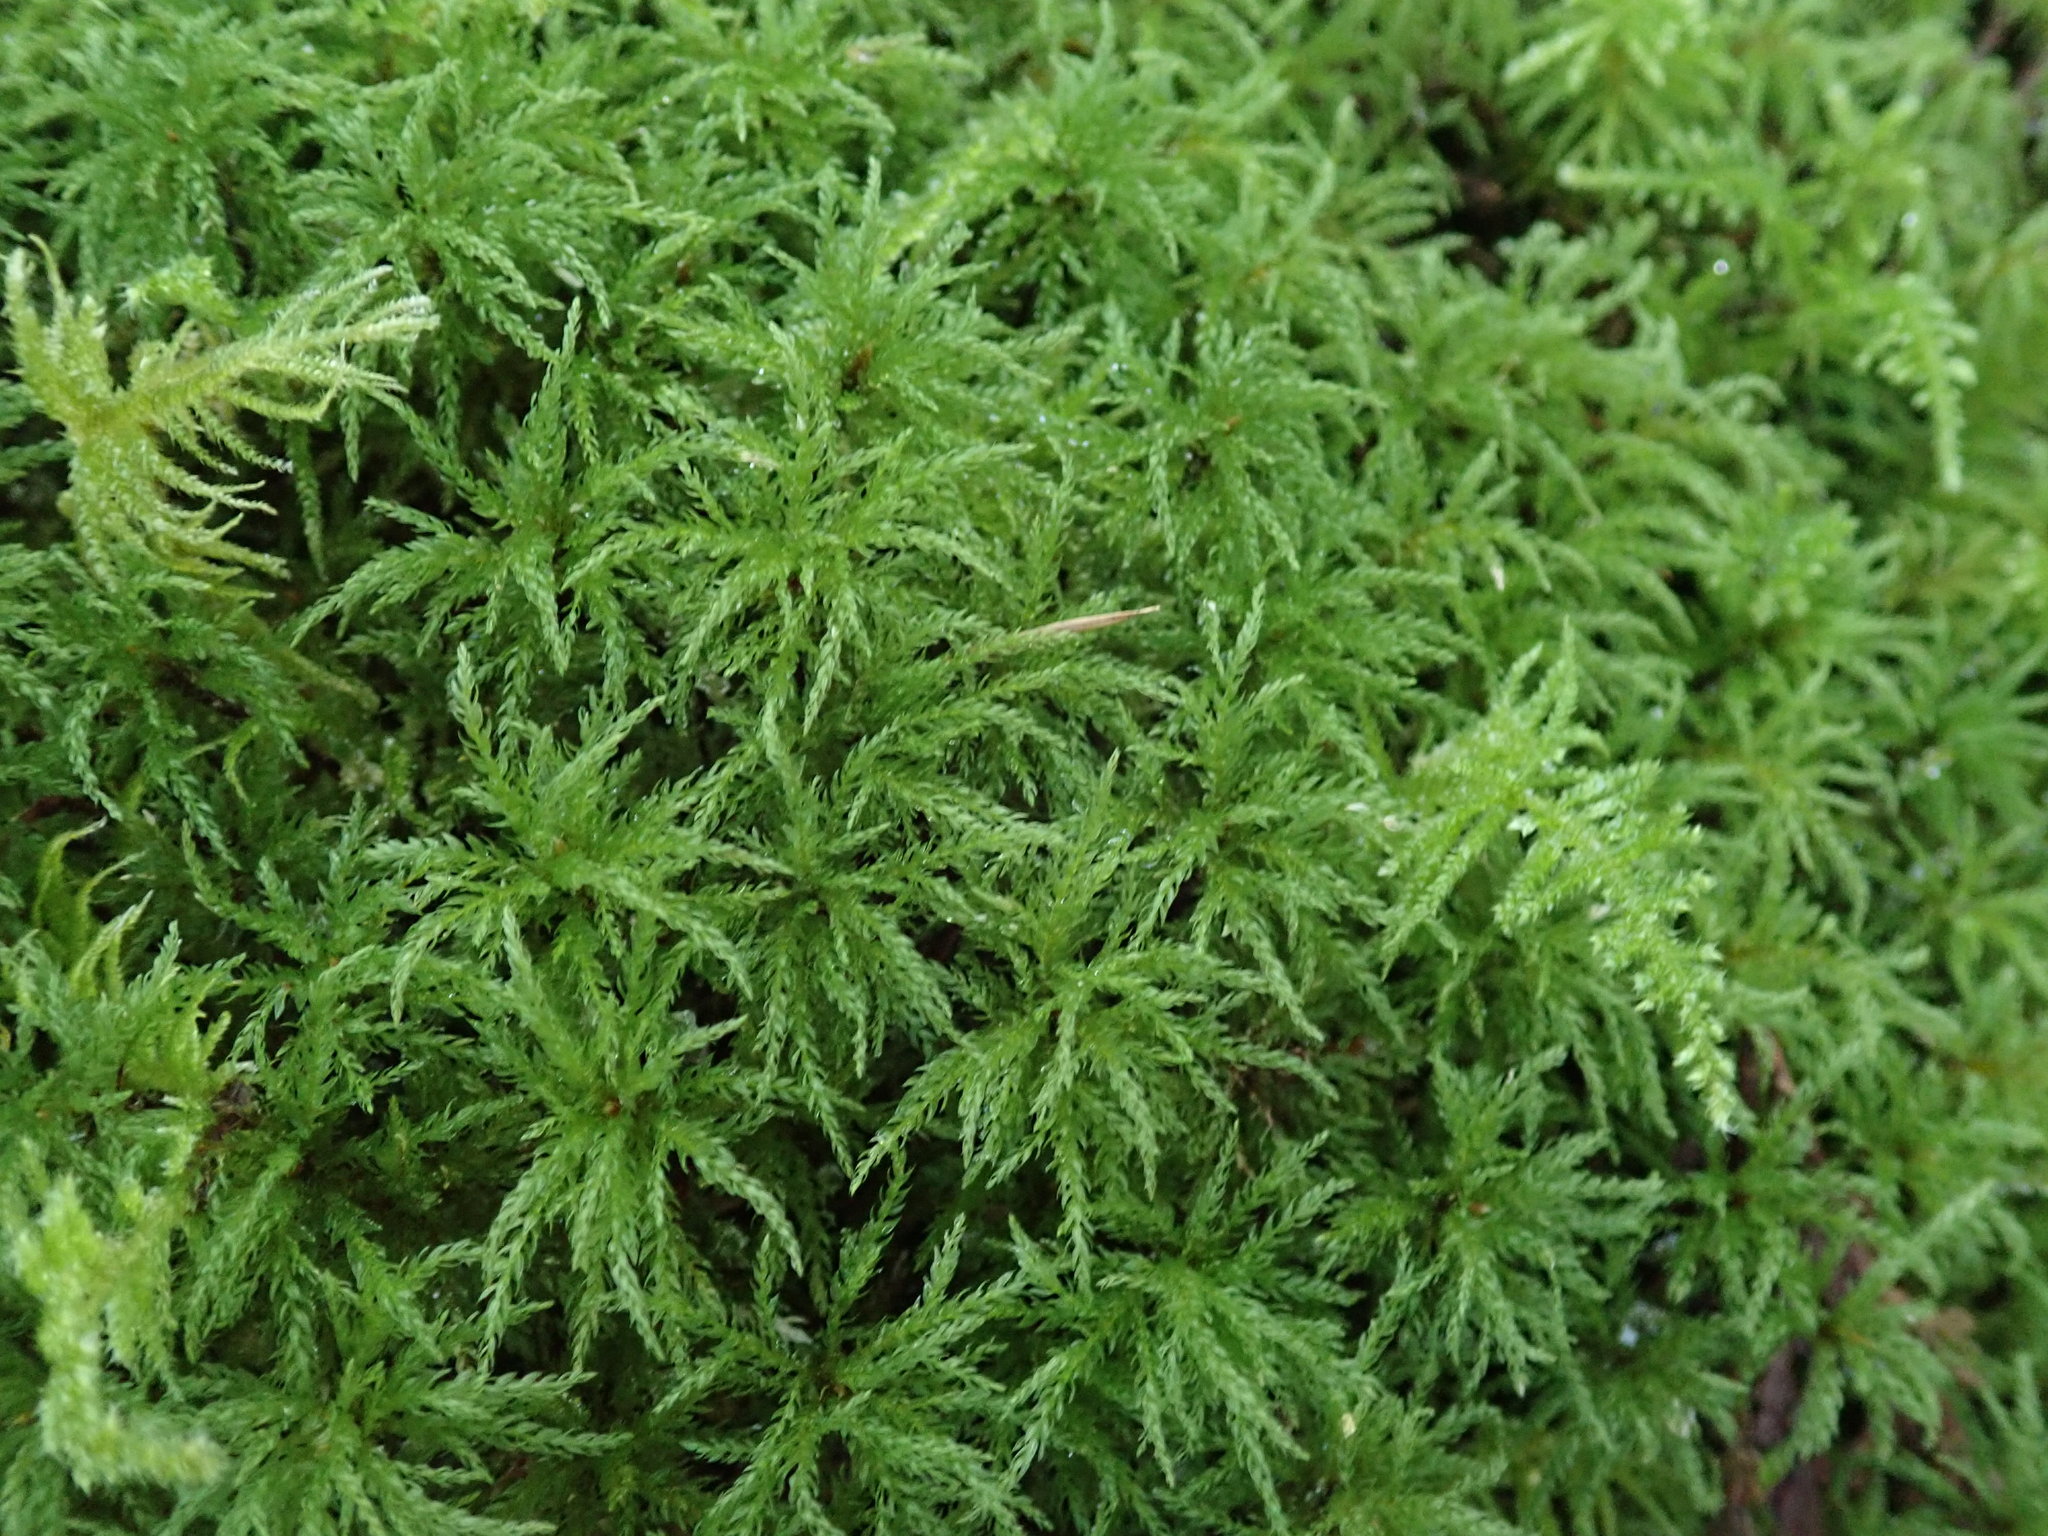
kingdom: Plantae
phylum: Bryophyta
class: Bryopsida
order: Bryales
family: Mniaceae
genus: Leucolepis
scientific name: Leucolepis acanthoneura
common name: Leucolepis umbrella moss
